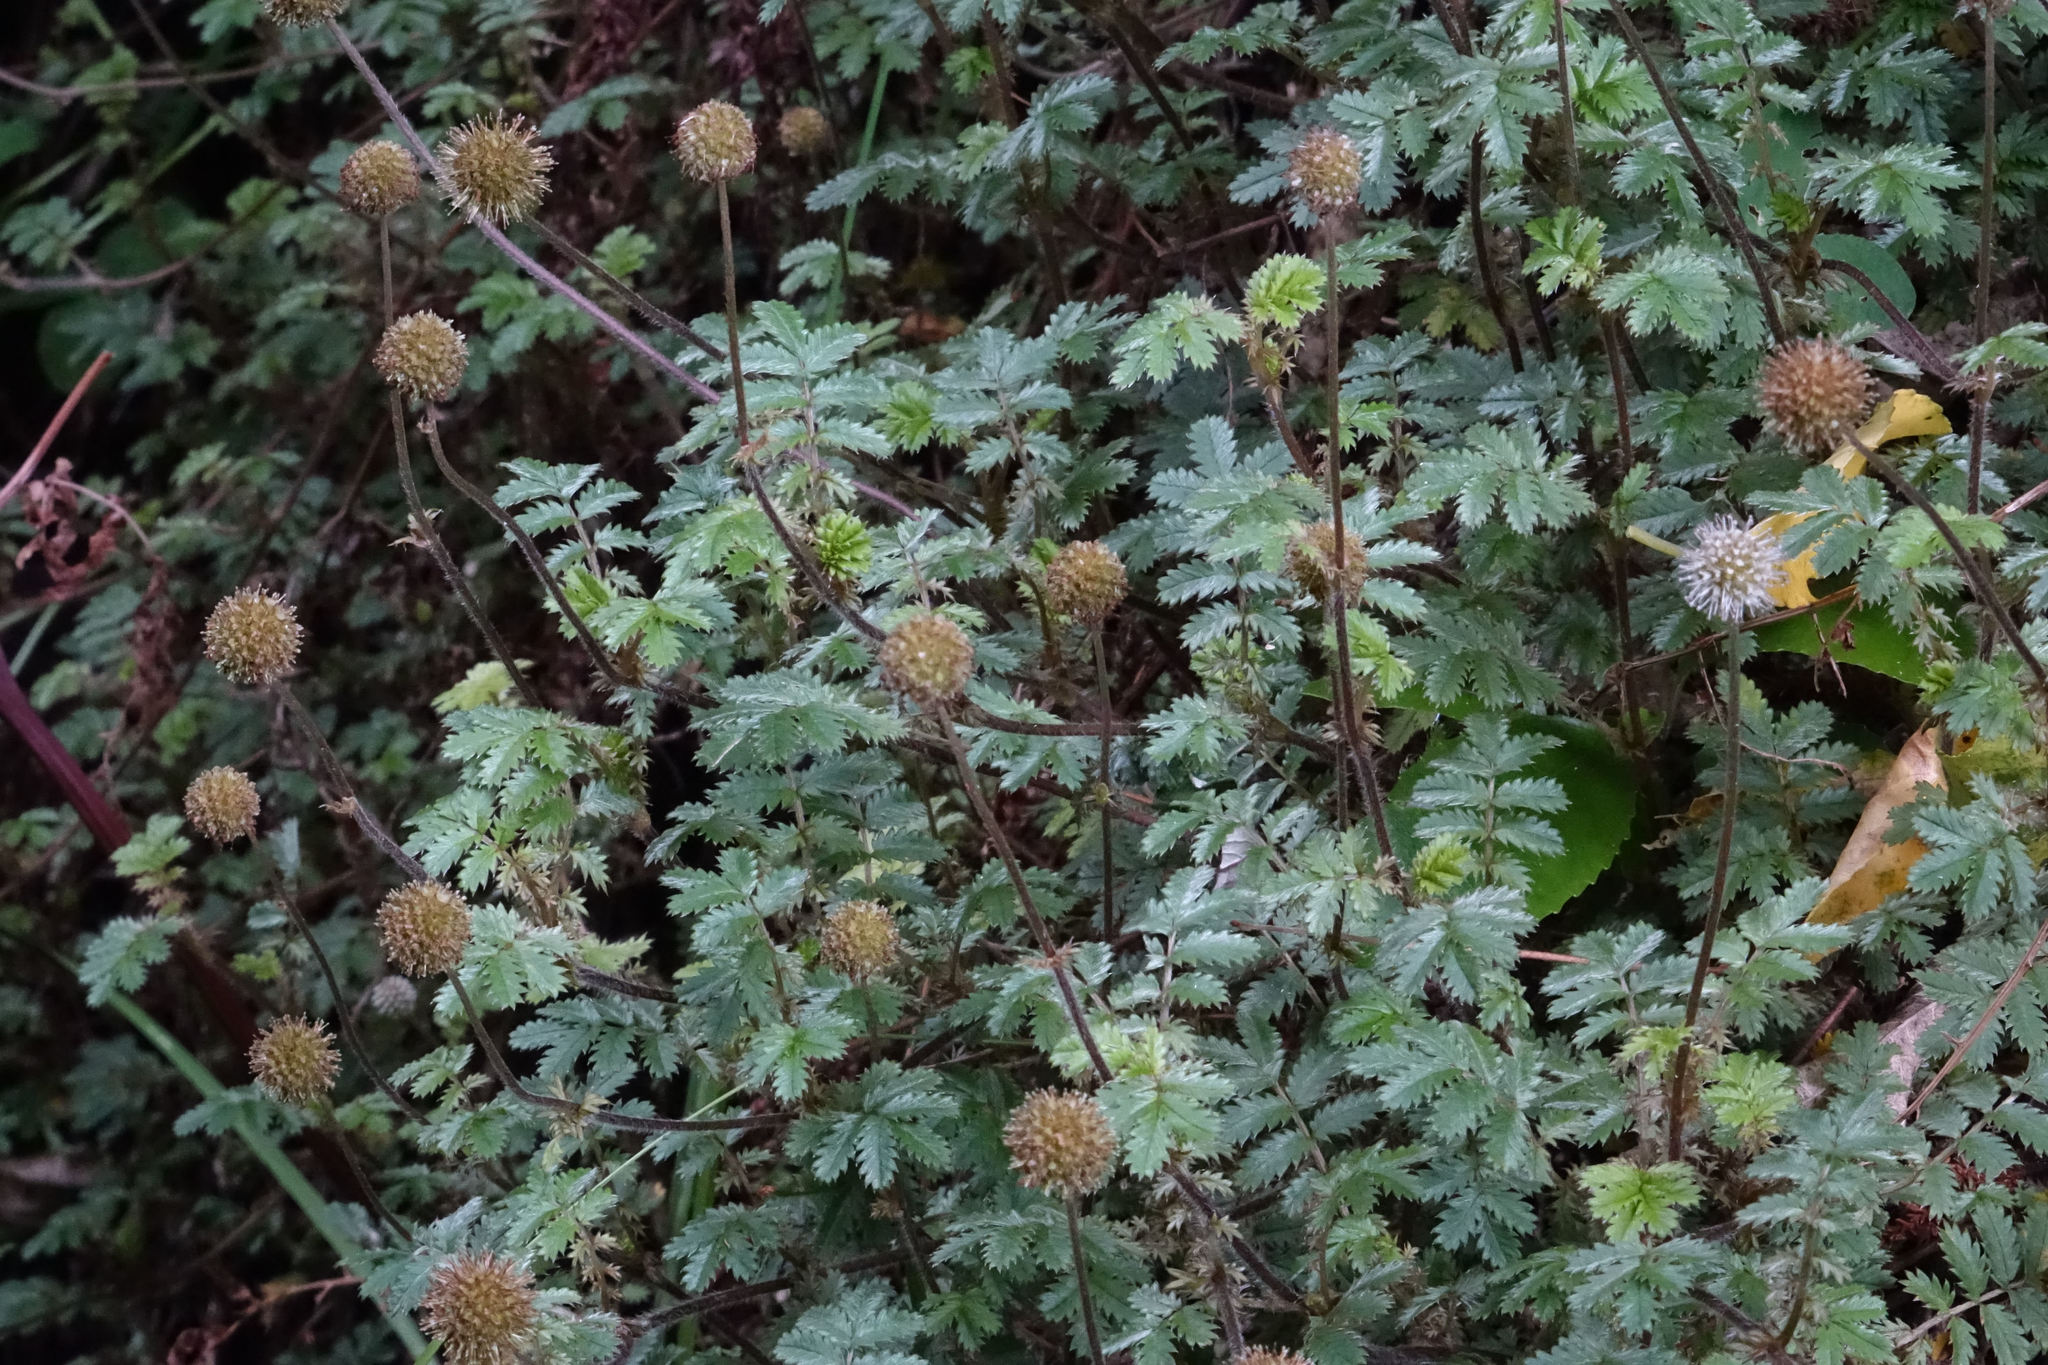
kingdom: Plantae
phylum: Tracheophyta
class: Magnoliopsida
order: Rosales
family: Rosaceae
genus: Acaena
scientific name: Acaena anserinifolia
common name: Bronze pirri-pirri-bur
